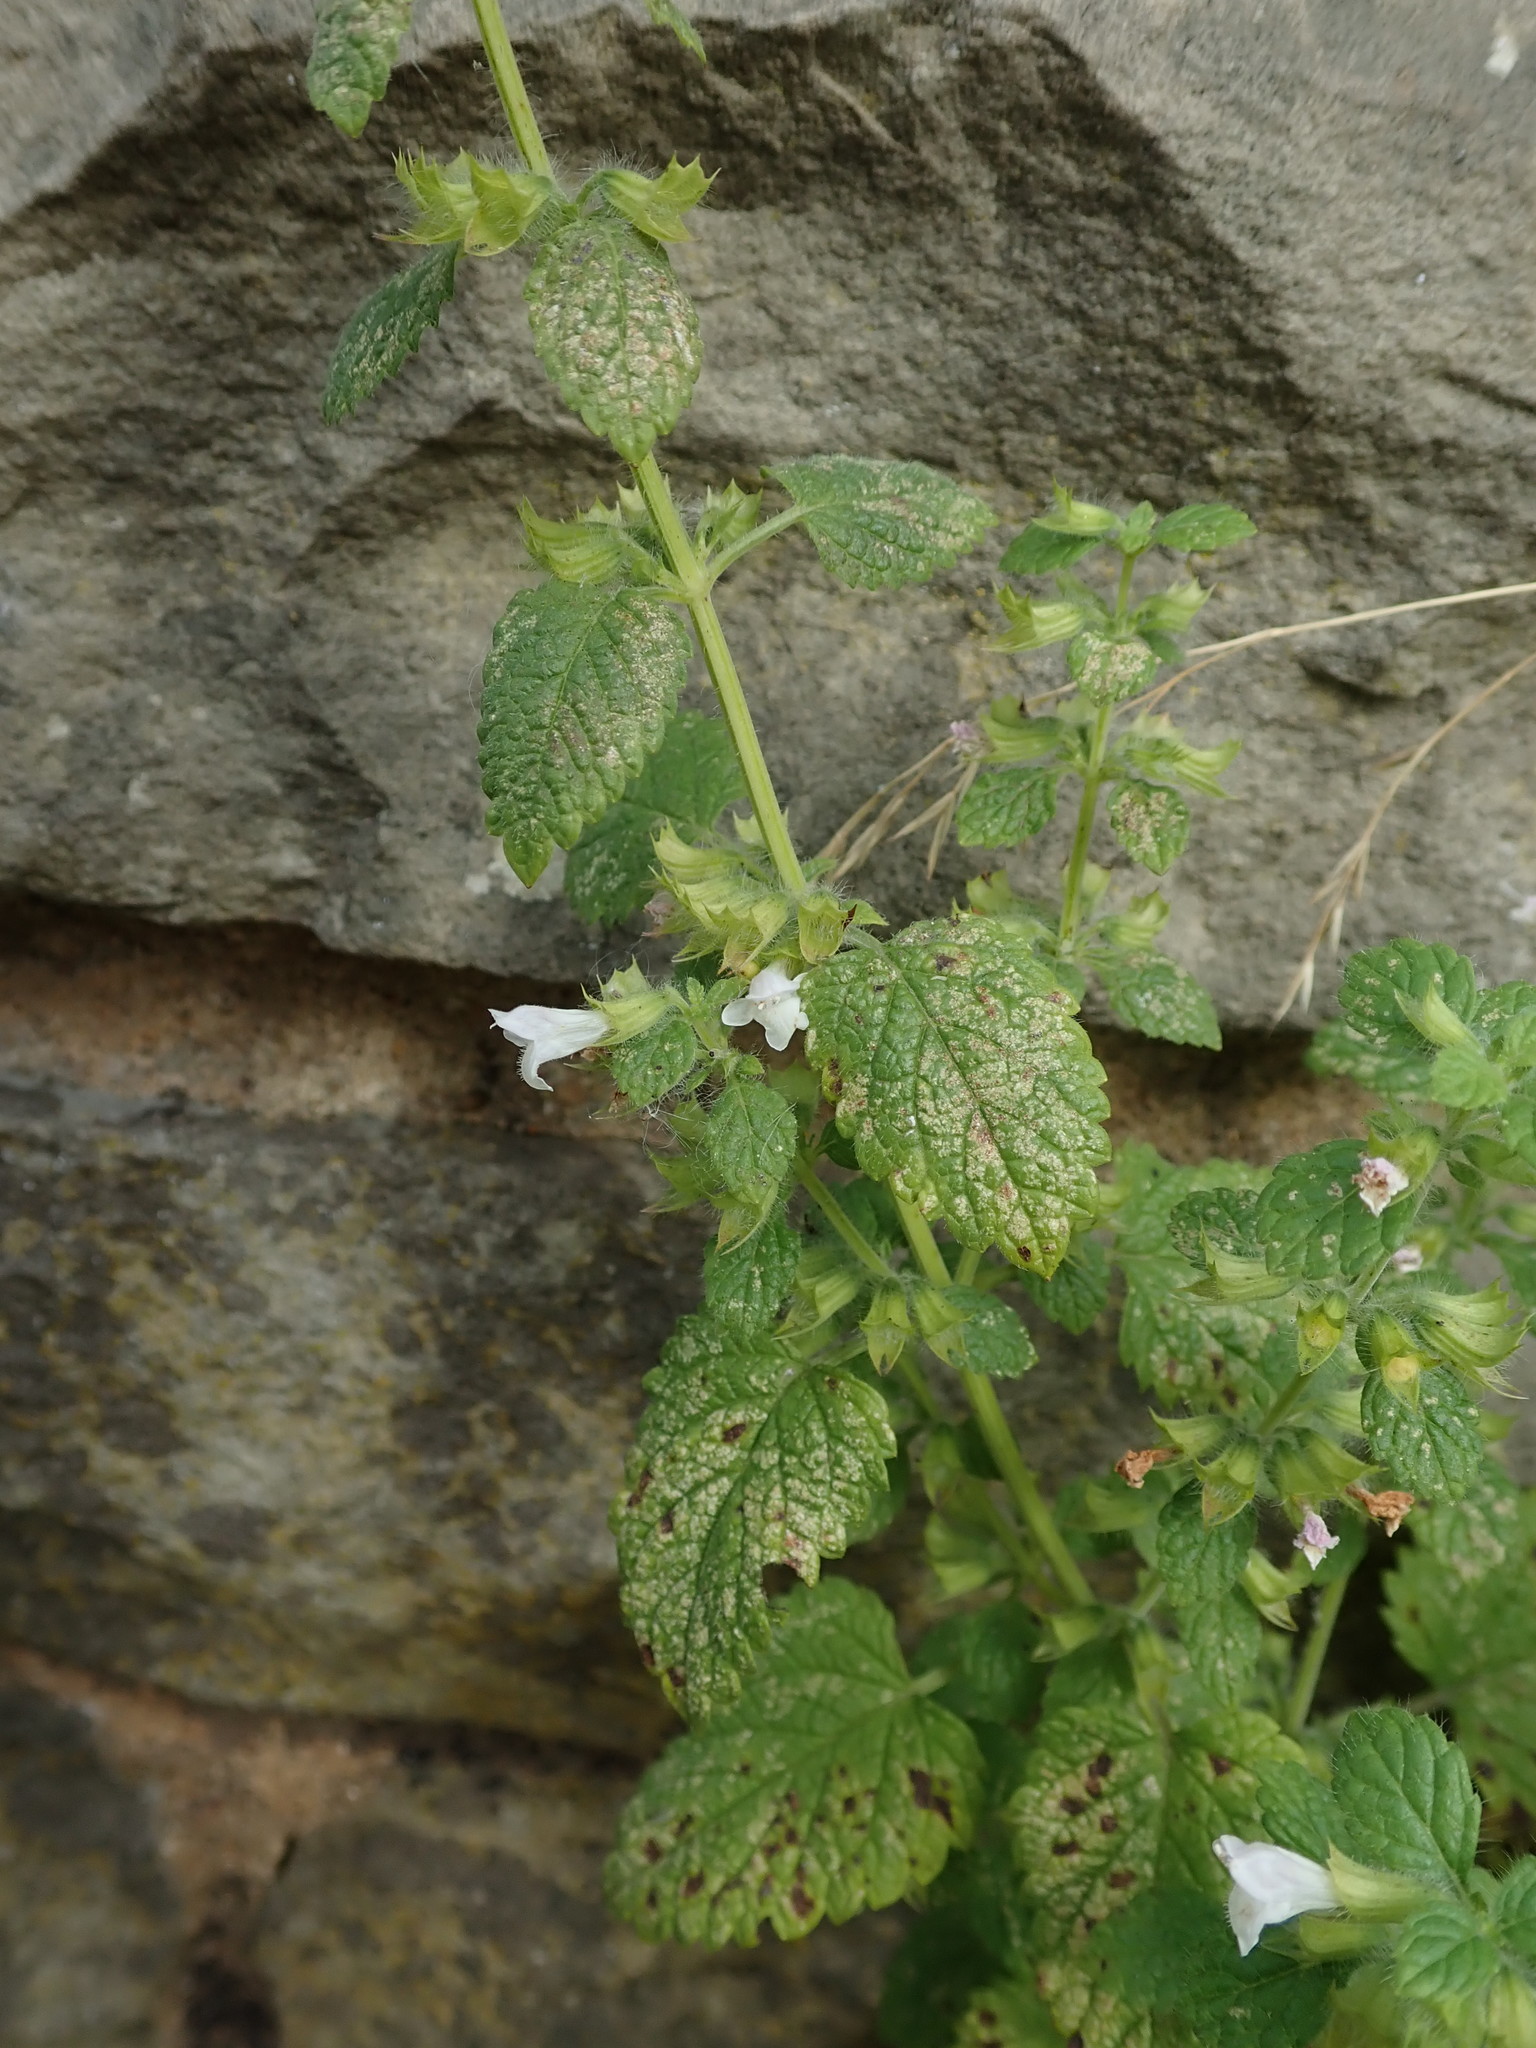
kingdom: Plantae
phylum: Tracheophyta
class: Magnoliopsida
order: Lamiales
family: Lamiaceae
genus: Melissa
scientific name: Melissa officinalis
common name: Balm
